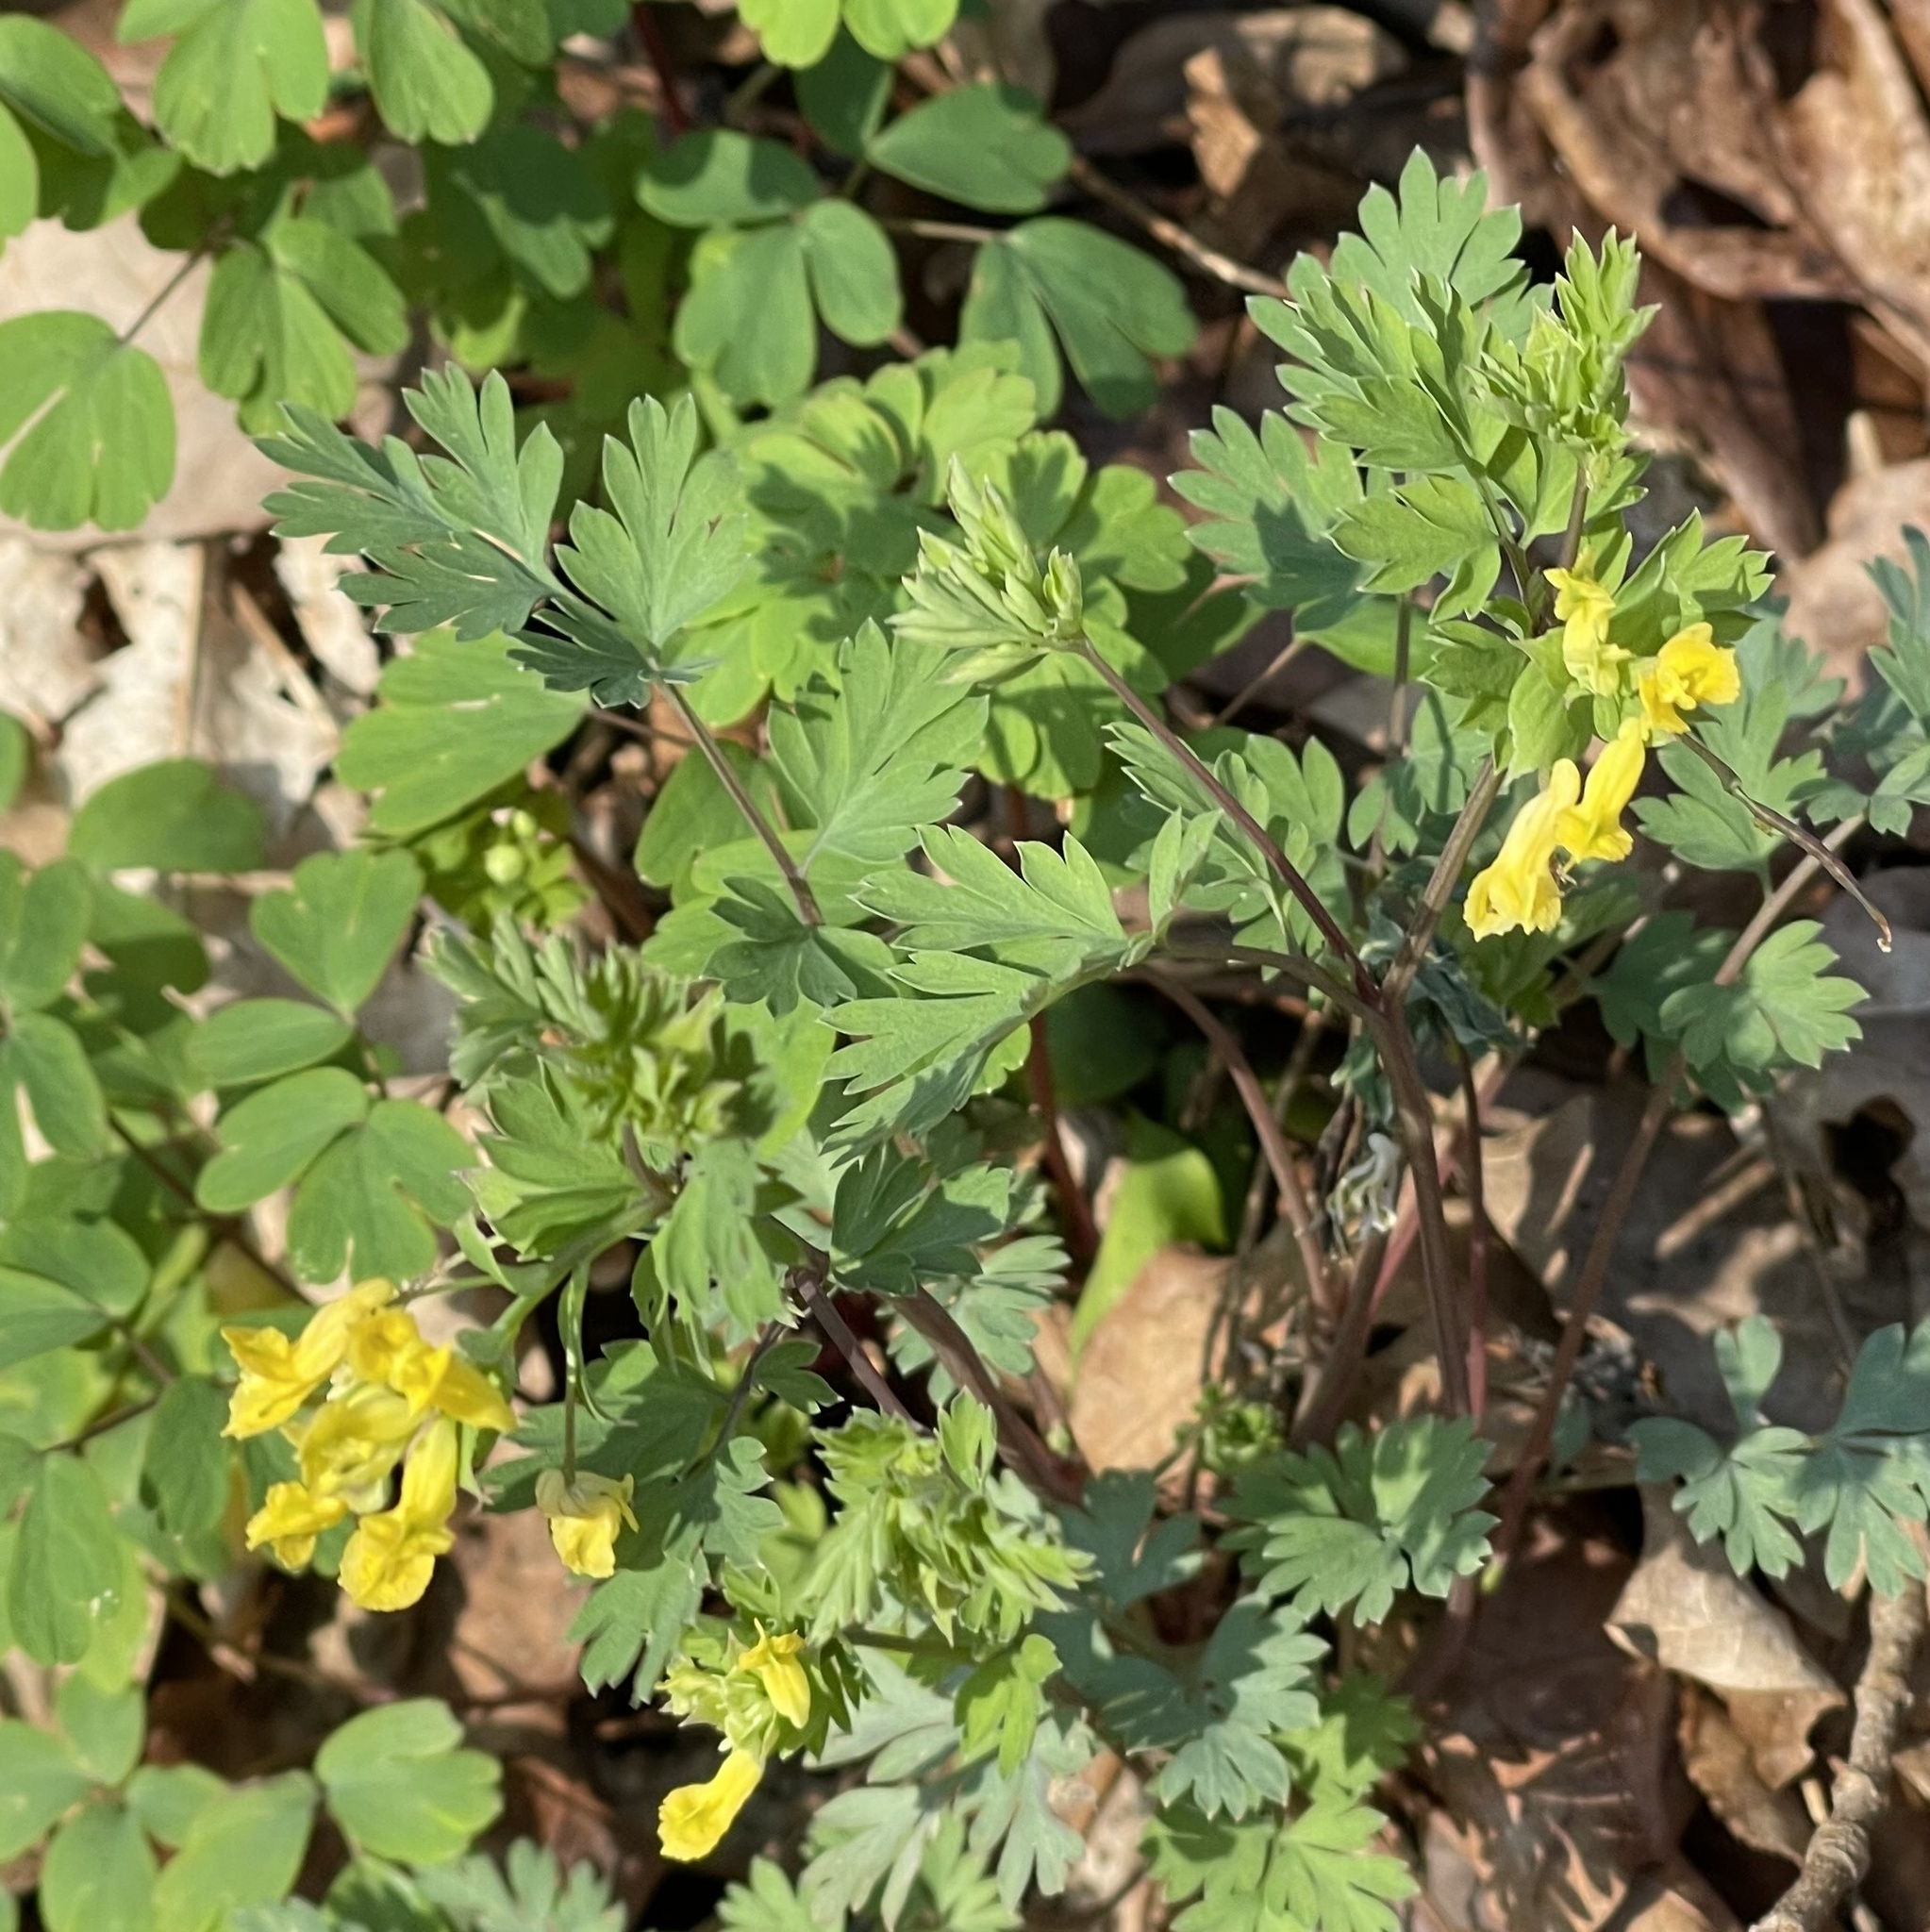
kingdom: Plantae
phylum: Tracheophyta
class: Magnoliopsida
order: Ranunculales
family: Papaveraceae
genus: Corydalis
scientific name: Corydalis flavula
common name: Yellow corydalis
